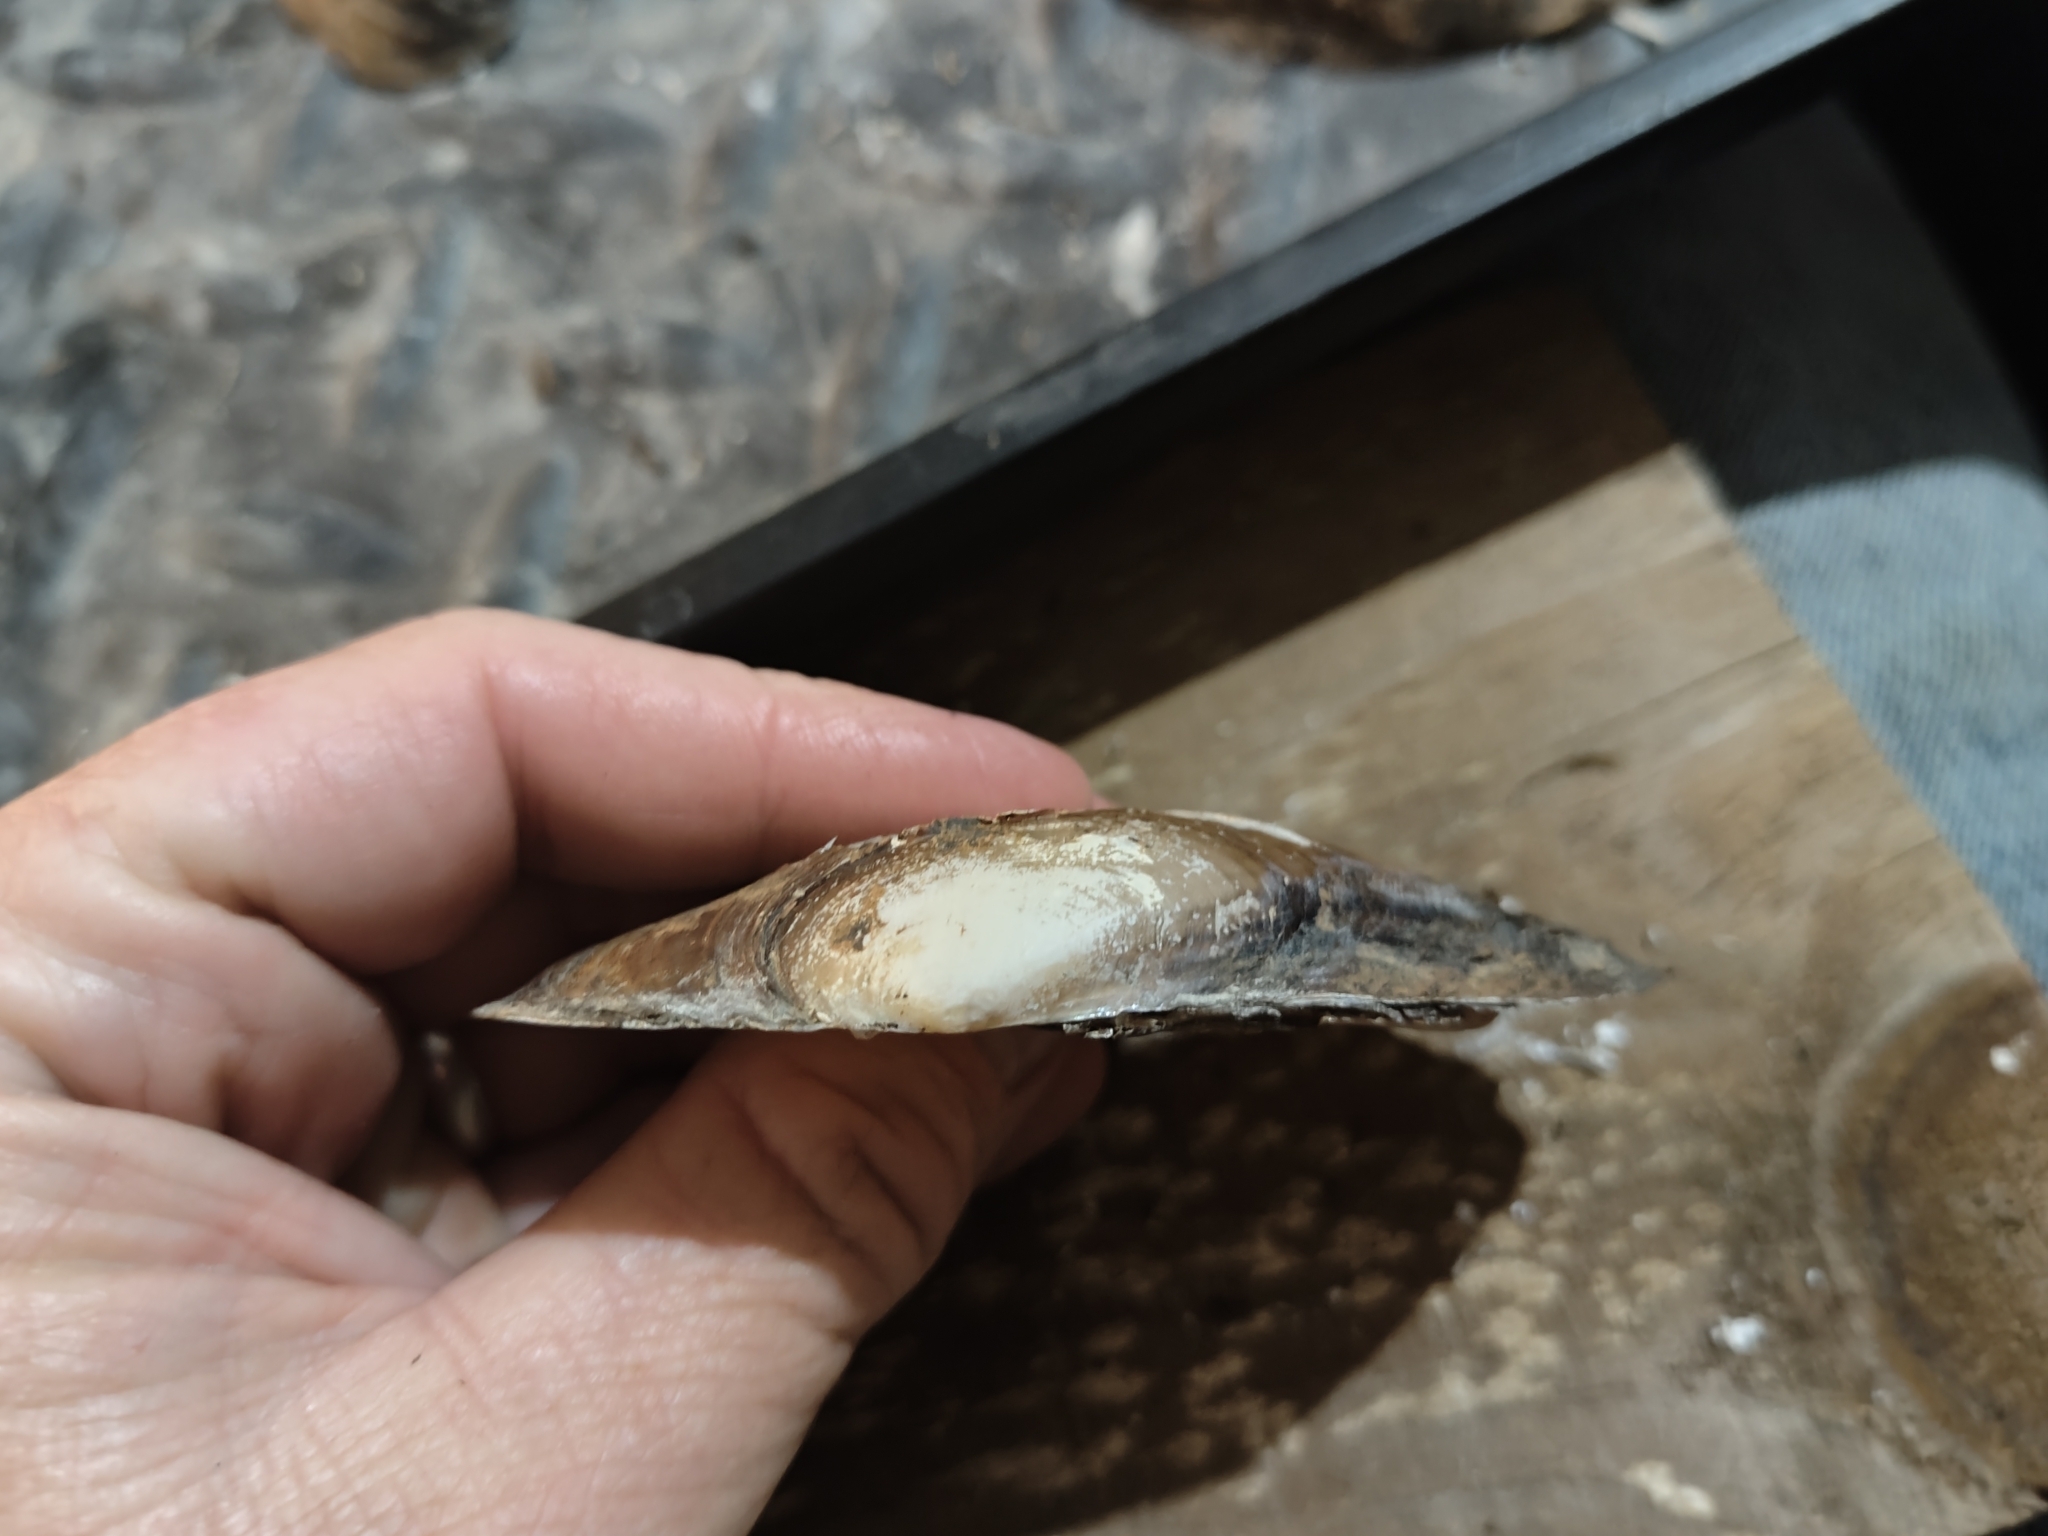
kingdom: Animalia
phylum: Mollusca
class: Bivalvia
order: Unionida
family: Unionidae
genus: Potamilus
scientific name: Potamilus fragilis
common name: Fragile papershell
